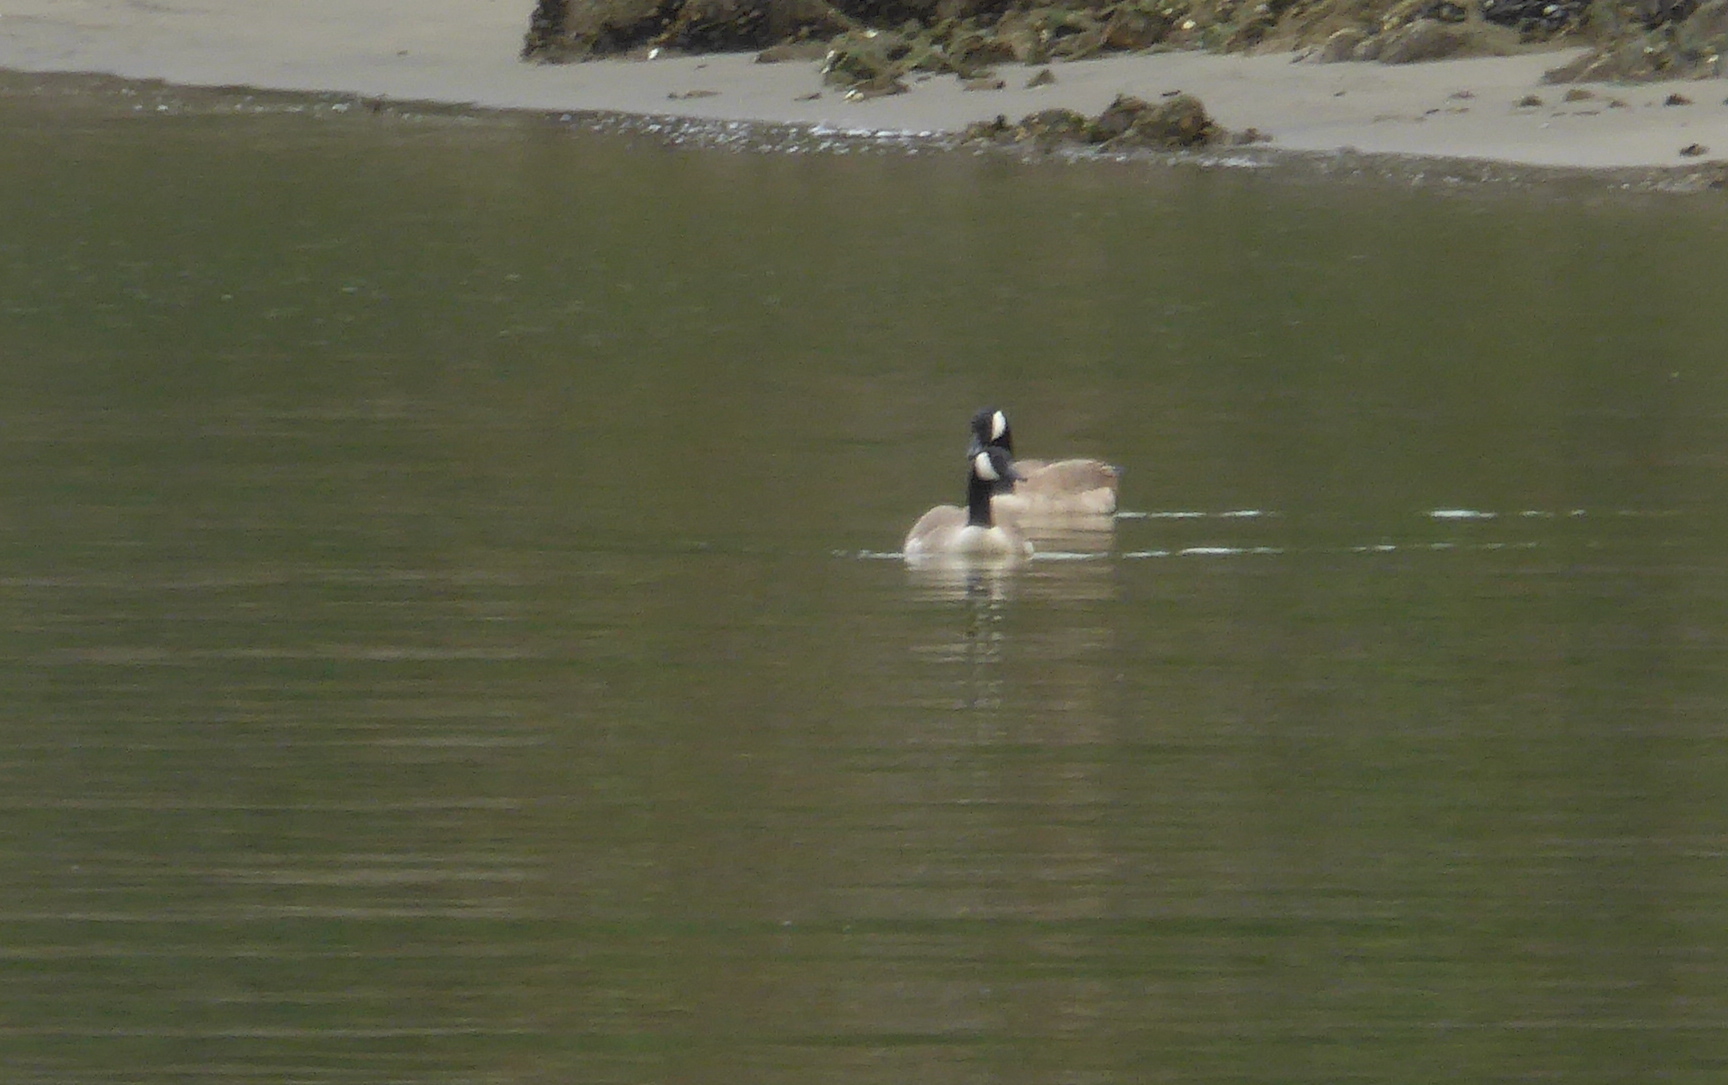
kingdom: Animalia
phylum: Chordata
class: Aves
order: Anseriformes
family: Anatidae
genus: Branta
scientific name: Branta canadensis
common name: Canada goose
